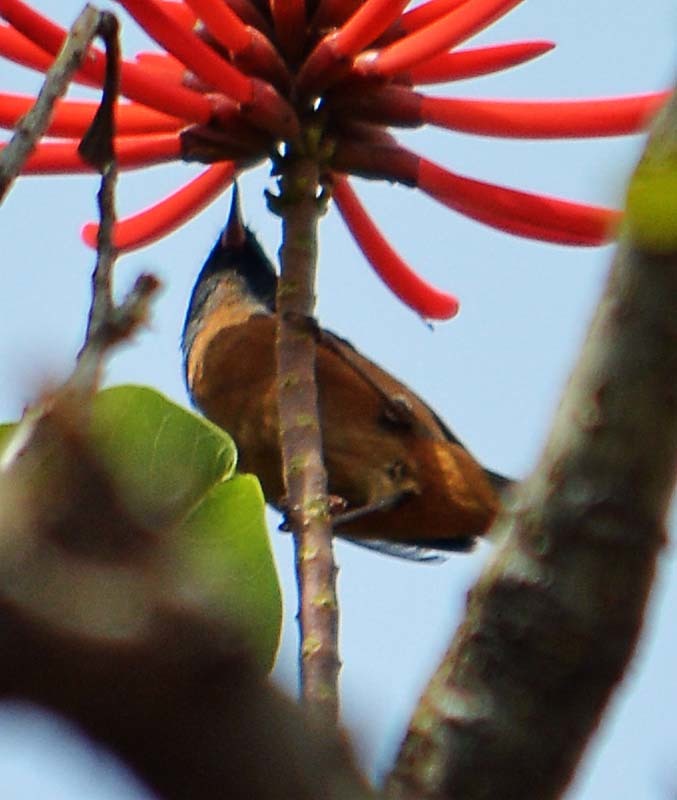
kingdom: Animalia
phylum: Chordata
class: Aves
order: Passeriformes
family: Thraupidae
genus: Diglossa
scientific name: Diglossa baritula
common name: Cinnamon-bellied flowerpiercer
